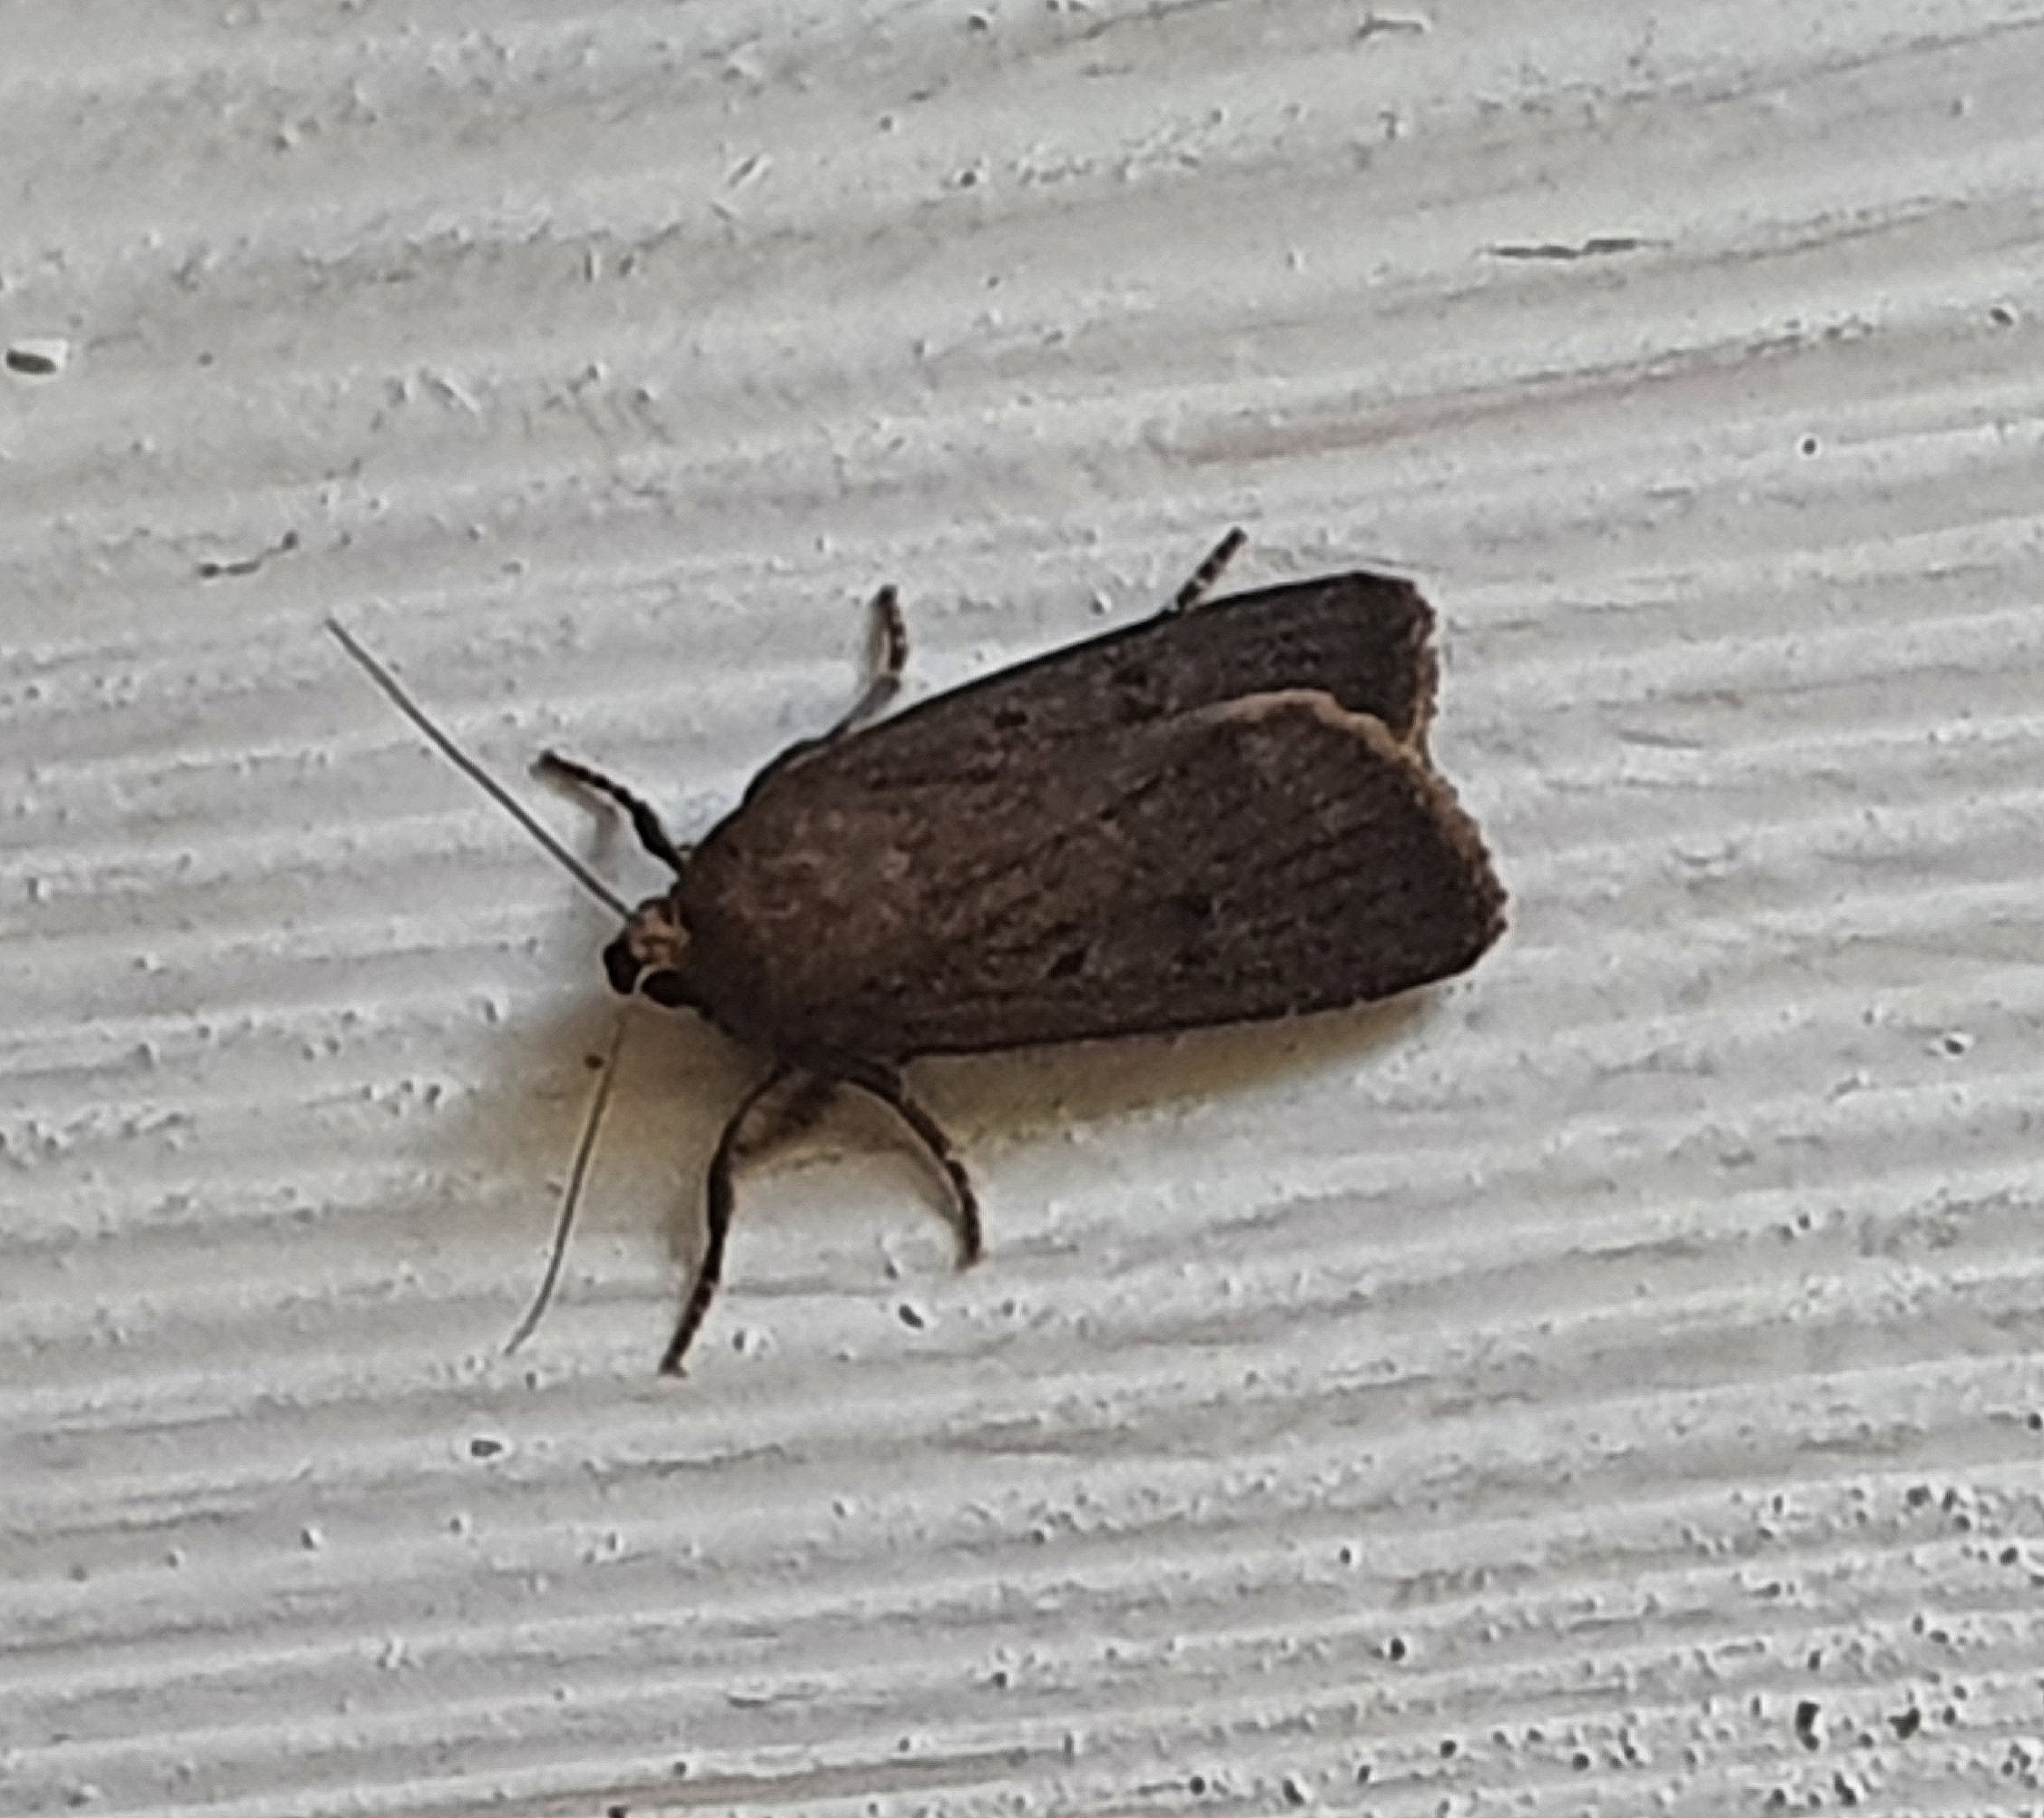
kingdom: Animalia
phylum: Arthropoda
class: Insecta
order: Lepidoptera
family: Noctuidae
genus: Amphipyra
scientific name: Amphipyra tragopoginis
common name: Mouse moth
